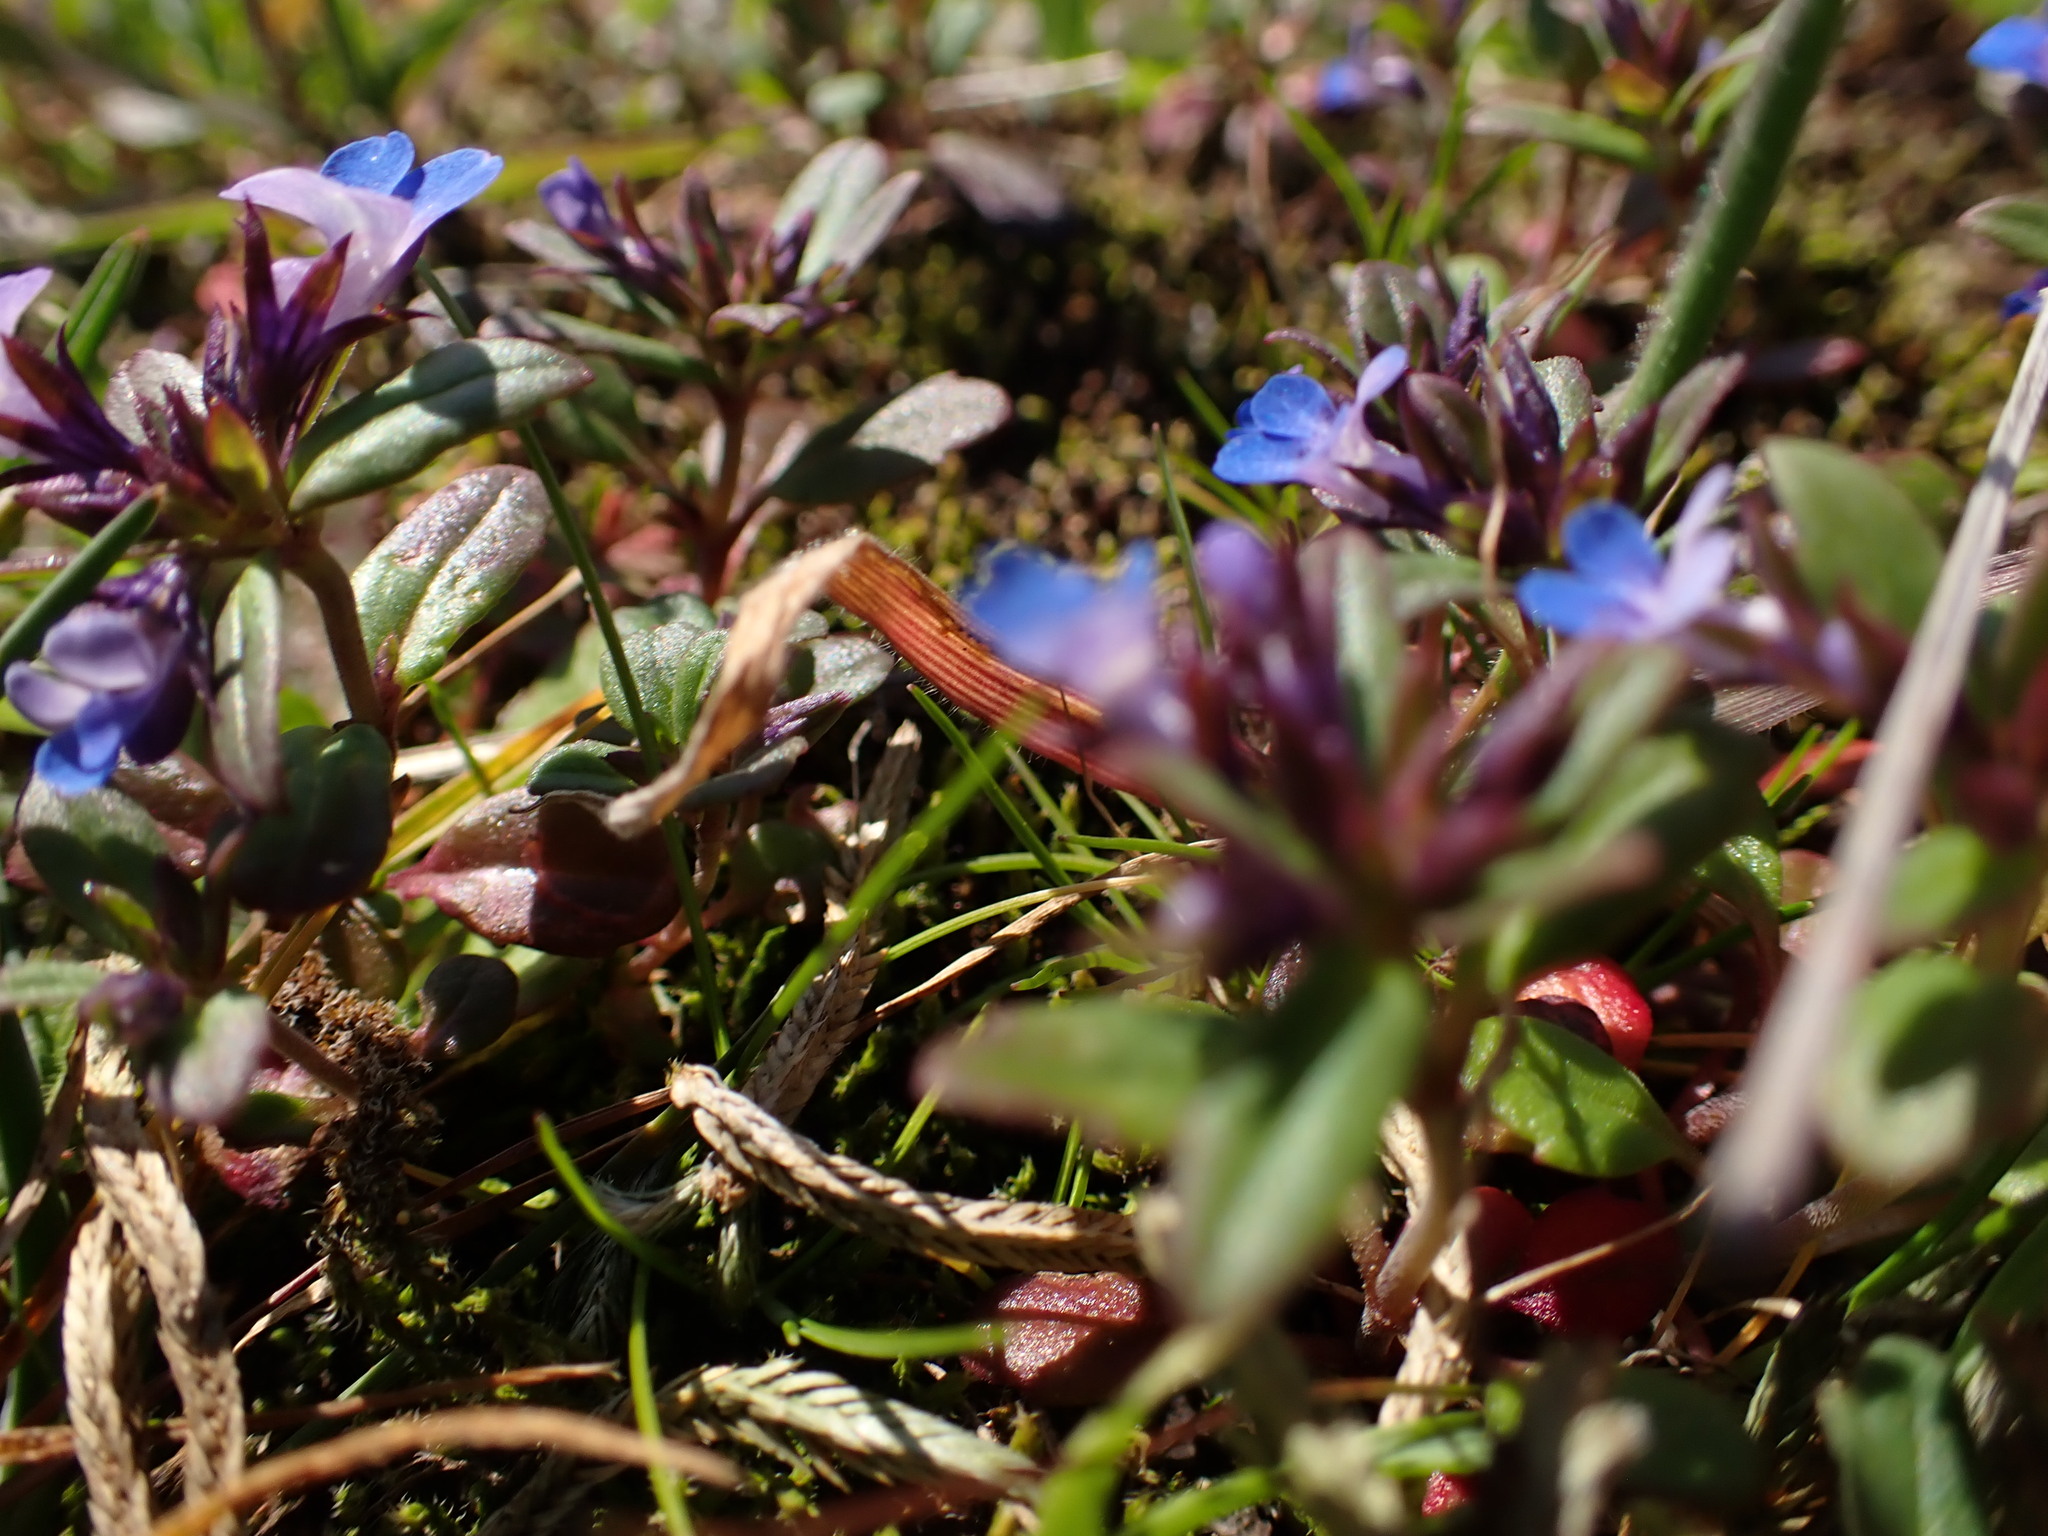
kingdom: Plantae
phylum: Tracheophyta
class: Magnoliopsida
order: Lamiales
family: Plantaginaceae
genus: Collinsia
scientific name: Collinsia parviflora
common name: Blue-lips
